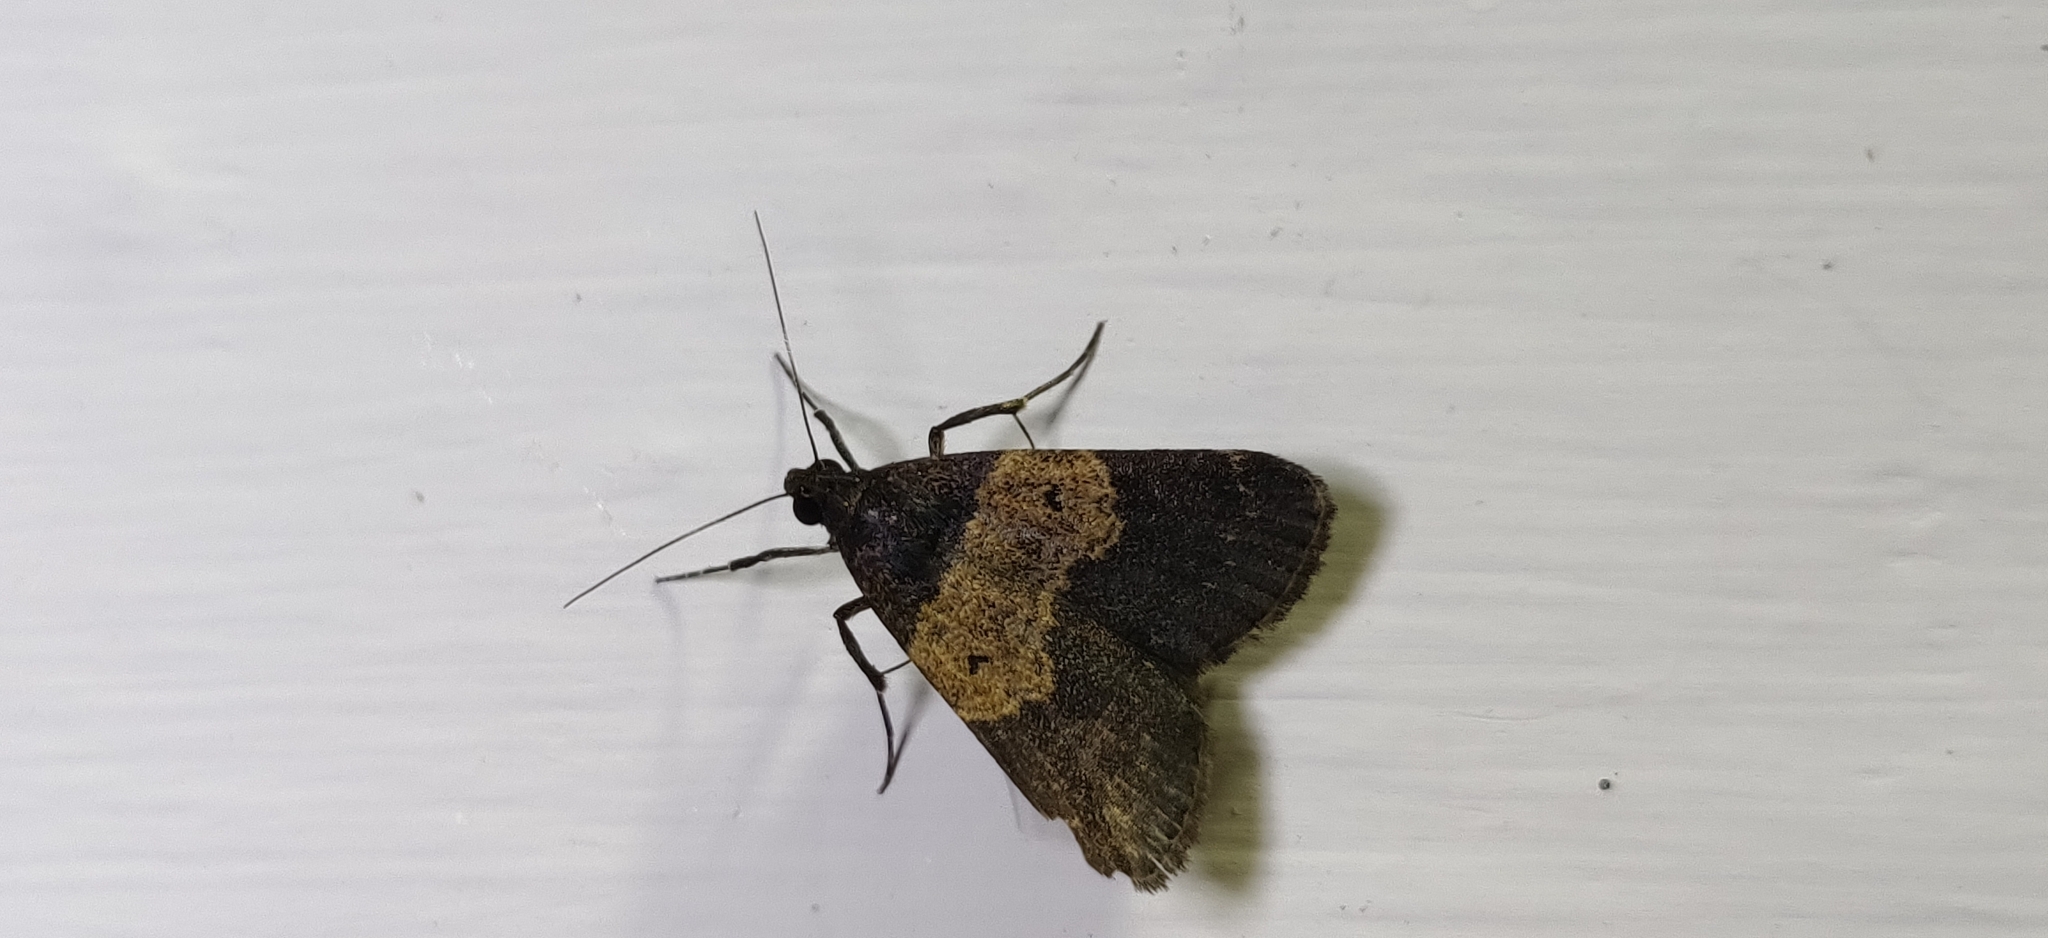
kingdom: Animalia
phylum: Arthropoda
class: Insecta
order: Lepidoptera
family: Erebidae
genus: Hydrillodes
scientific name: Hydrillodes lentalis
